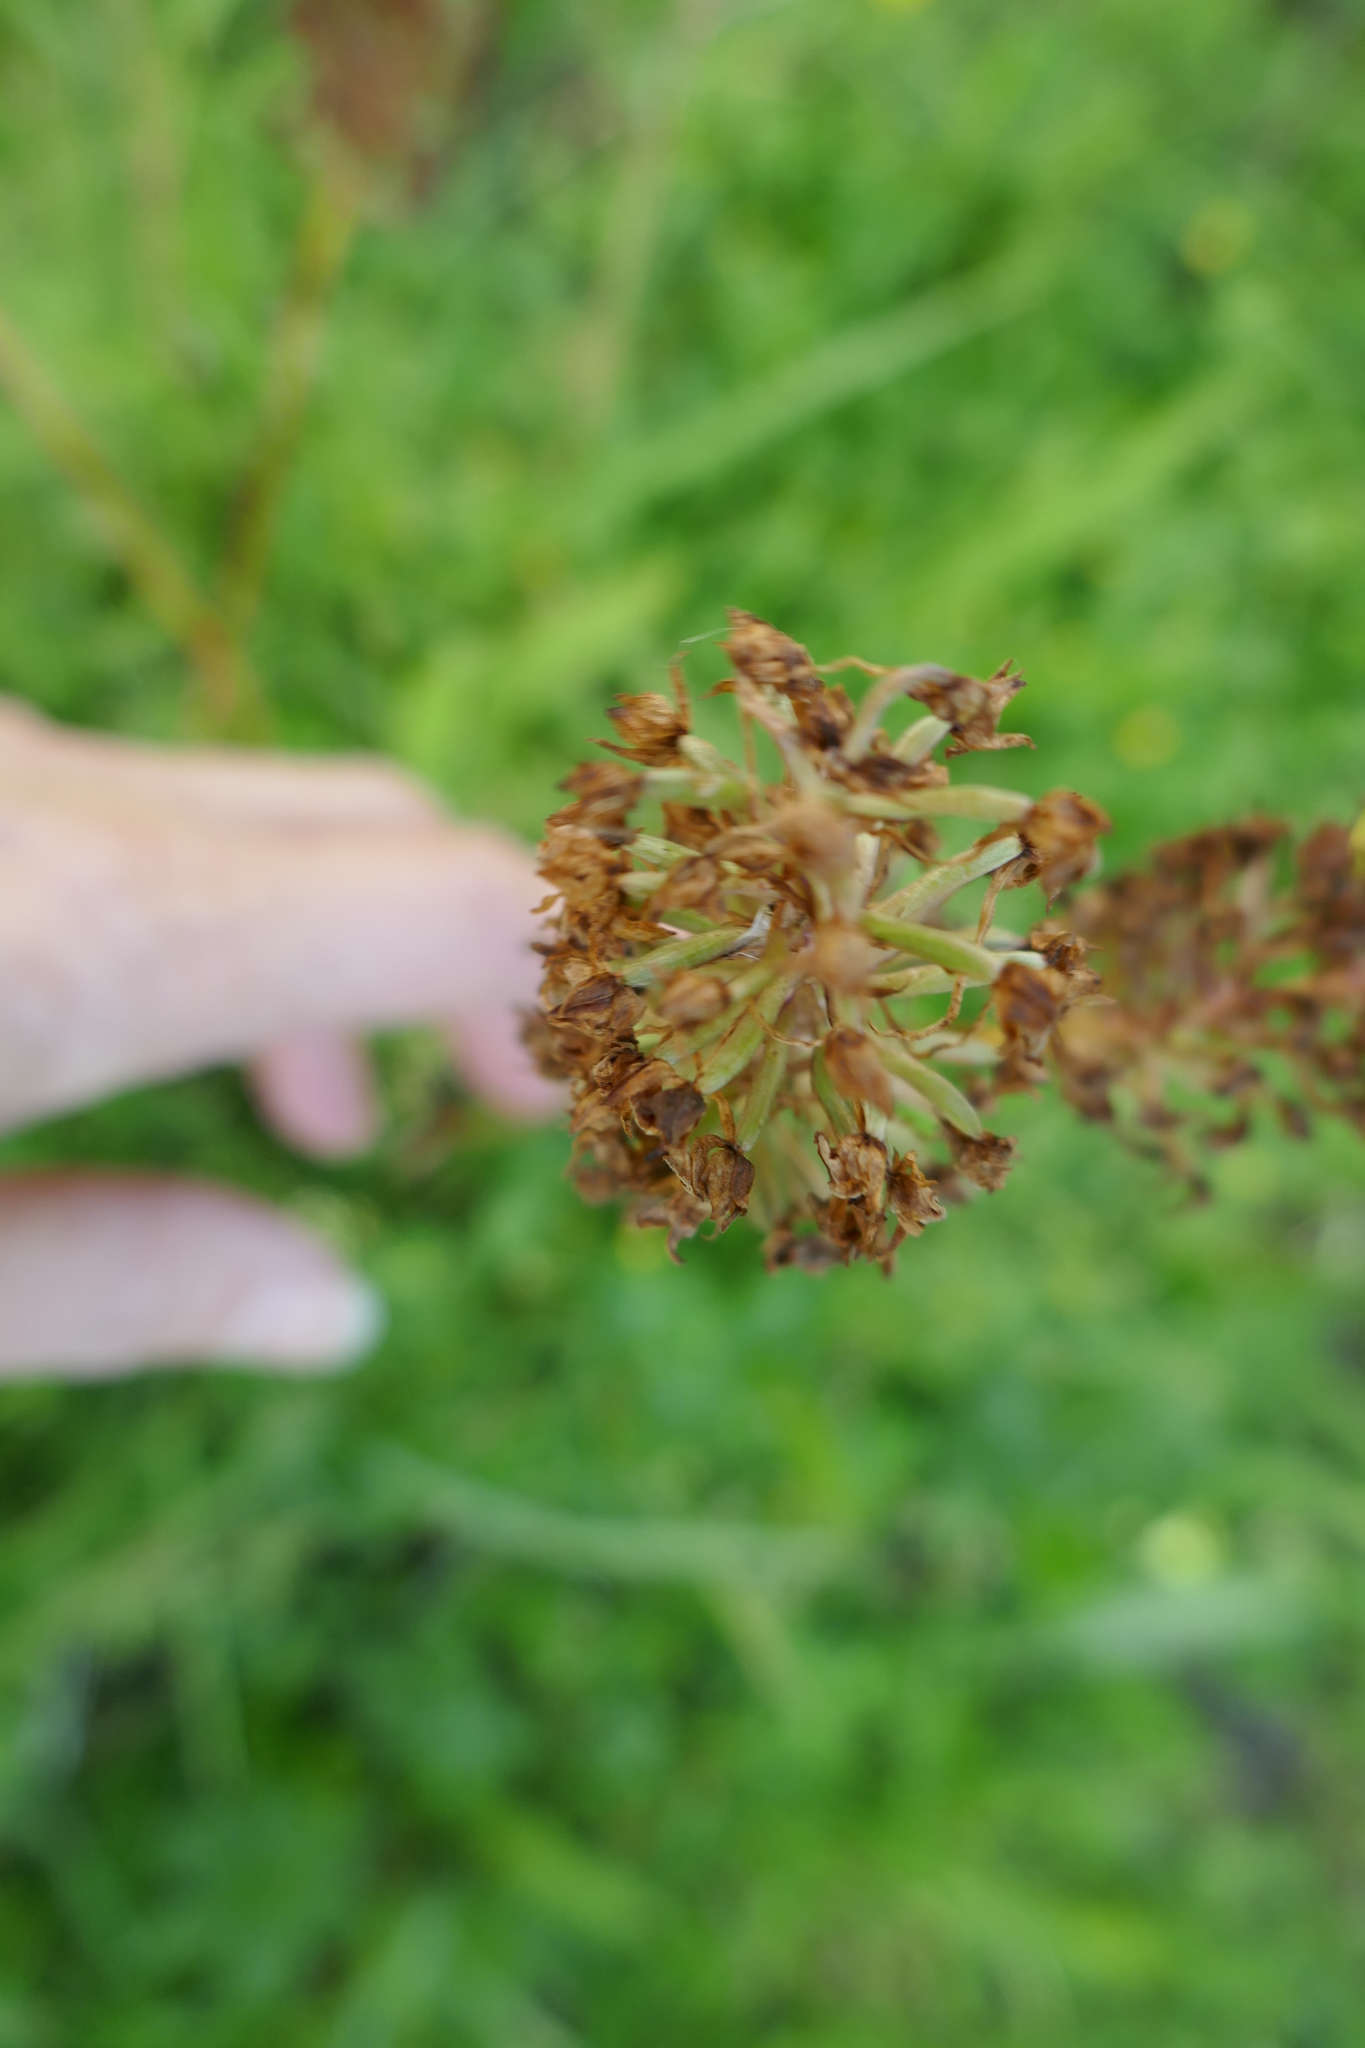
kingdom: Plantae
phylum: Tracheophyta
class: Liliopsida
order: Asparagales
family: Orchidaceae
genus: Anacamptis
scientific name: Anacamptis pyramidalis
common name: Pyramidal orchid
